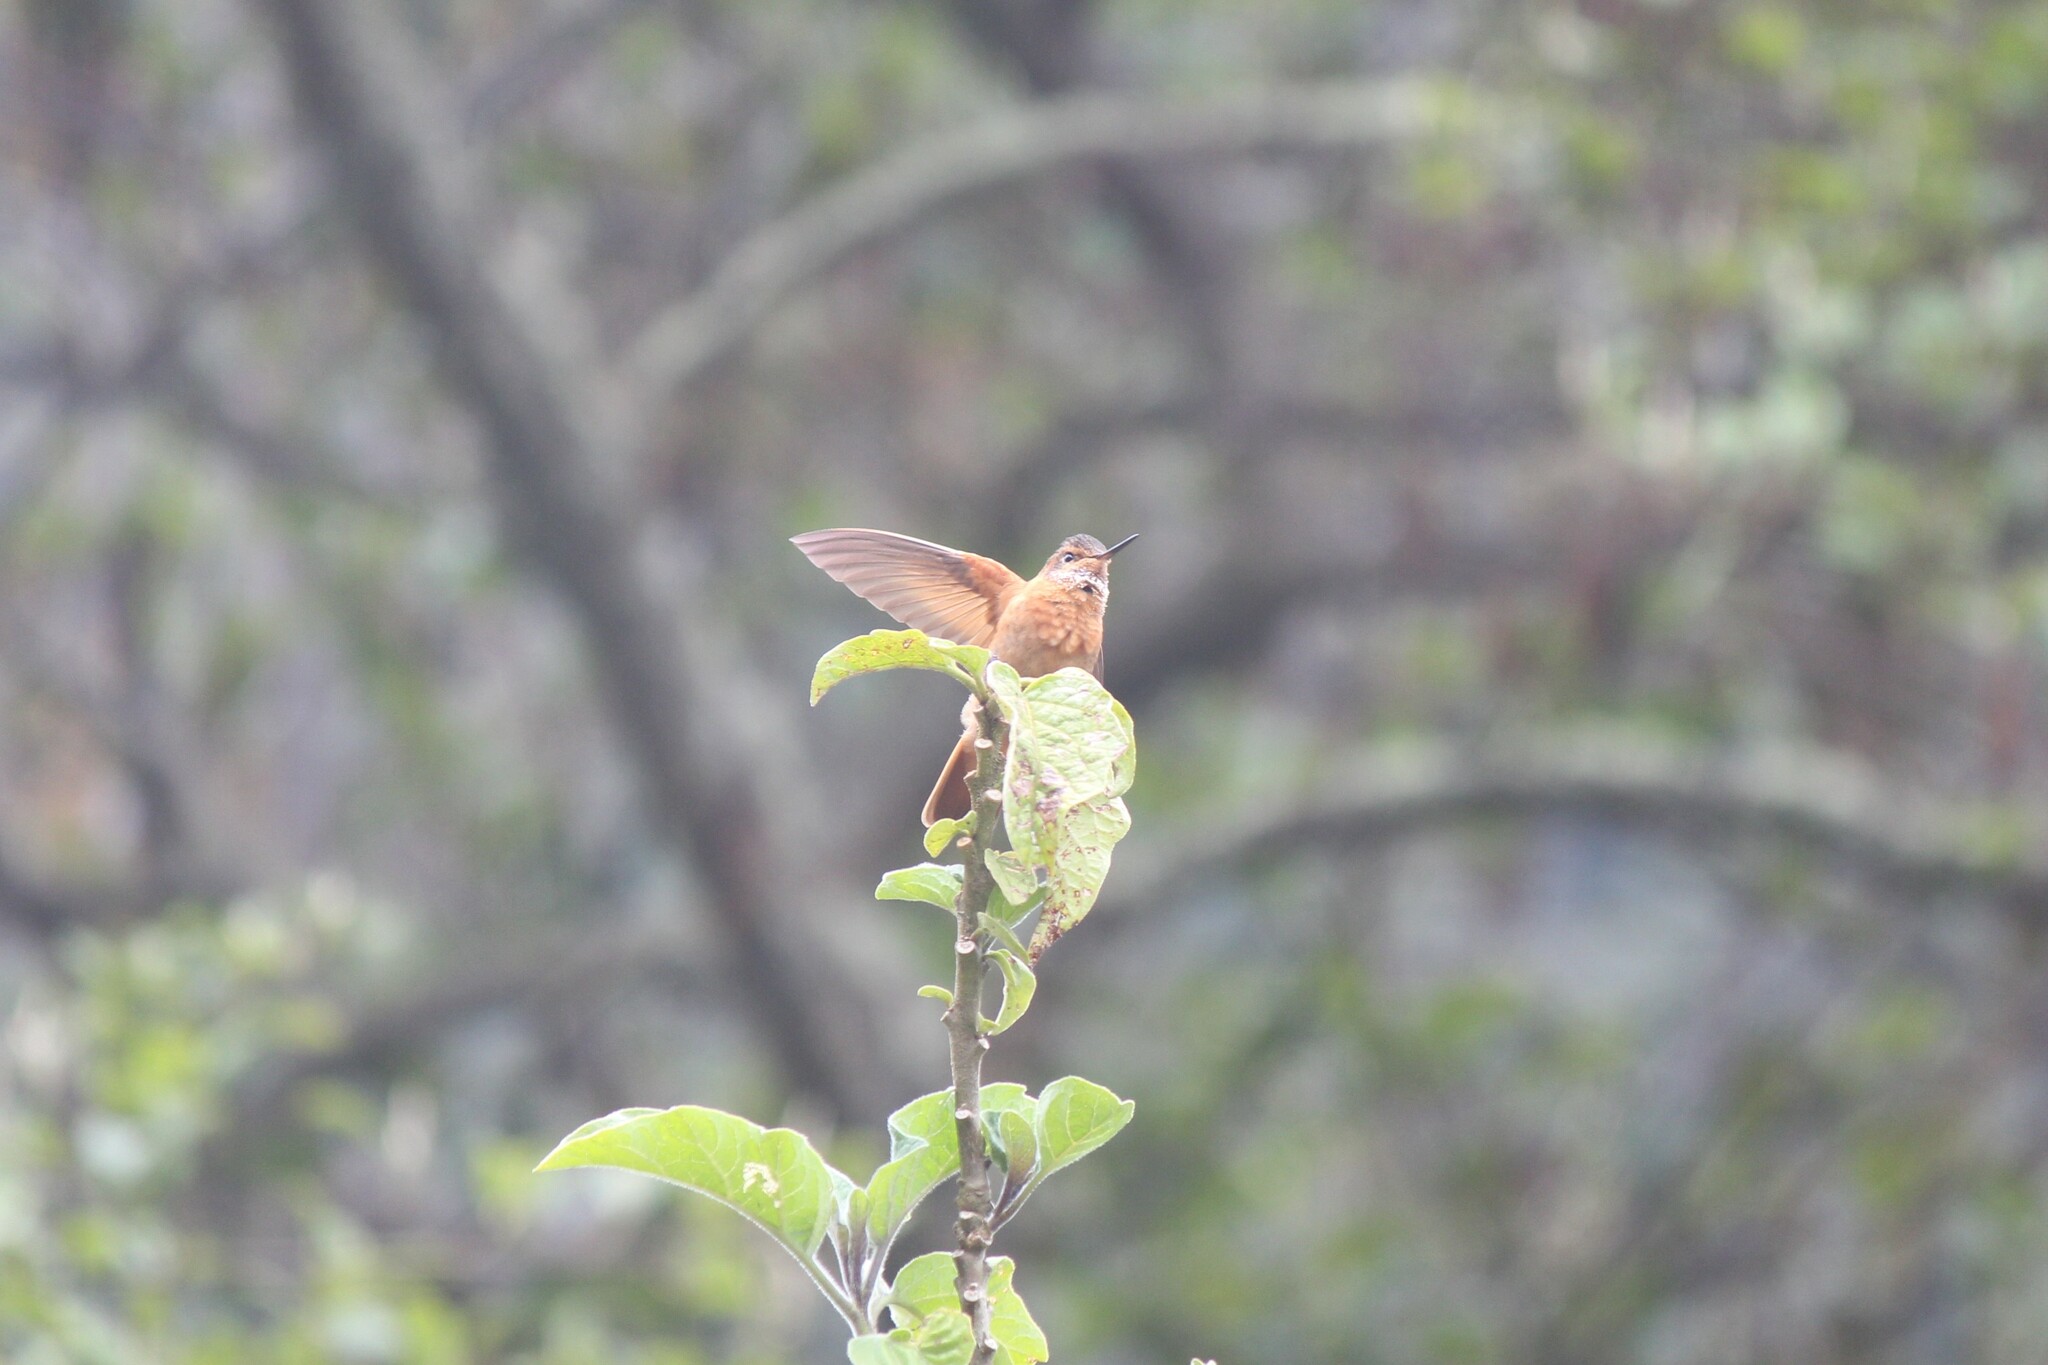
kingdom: Animalia
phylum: Chordata
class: Aves
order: Apodiformes
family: Trochilidae
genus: Aglaeactis
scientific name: Aglaeactis cupripennis
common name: Shining sunbeam
